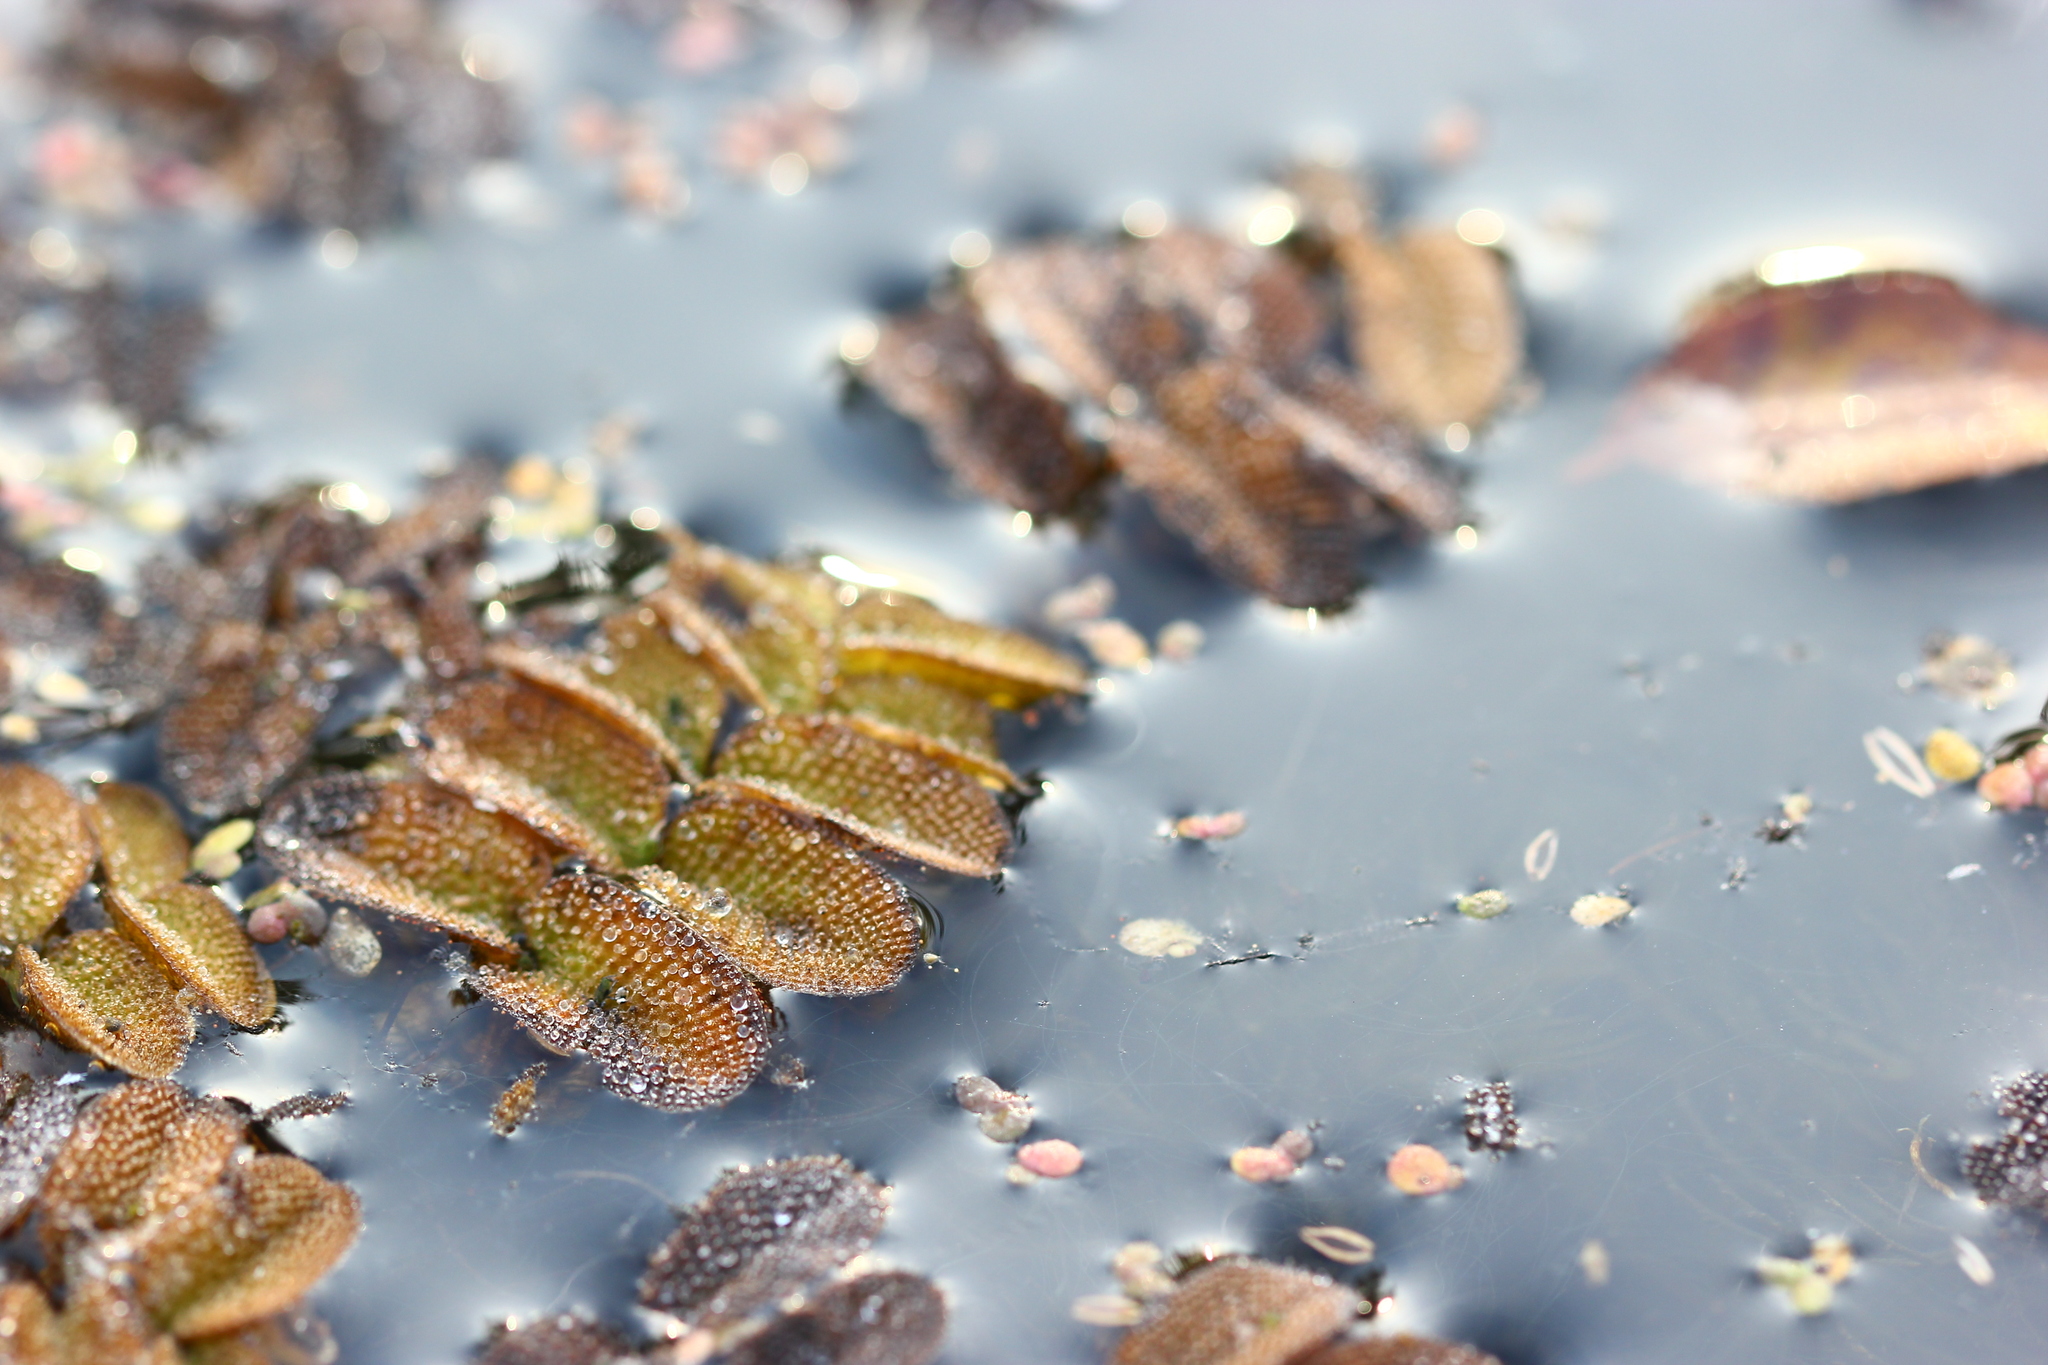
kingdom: Plantae
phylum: Tracheophyta
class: Polypodiopsida
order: Salviniales
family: Salviniaceae
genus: Salvinia
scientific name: Salvinia natans
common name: Floating fern
